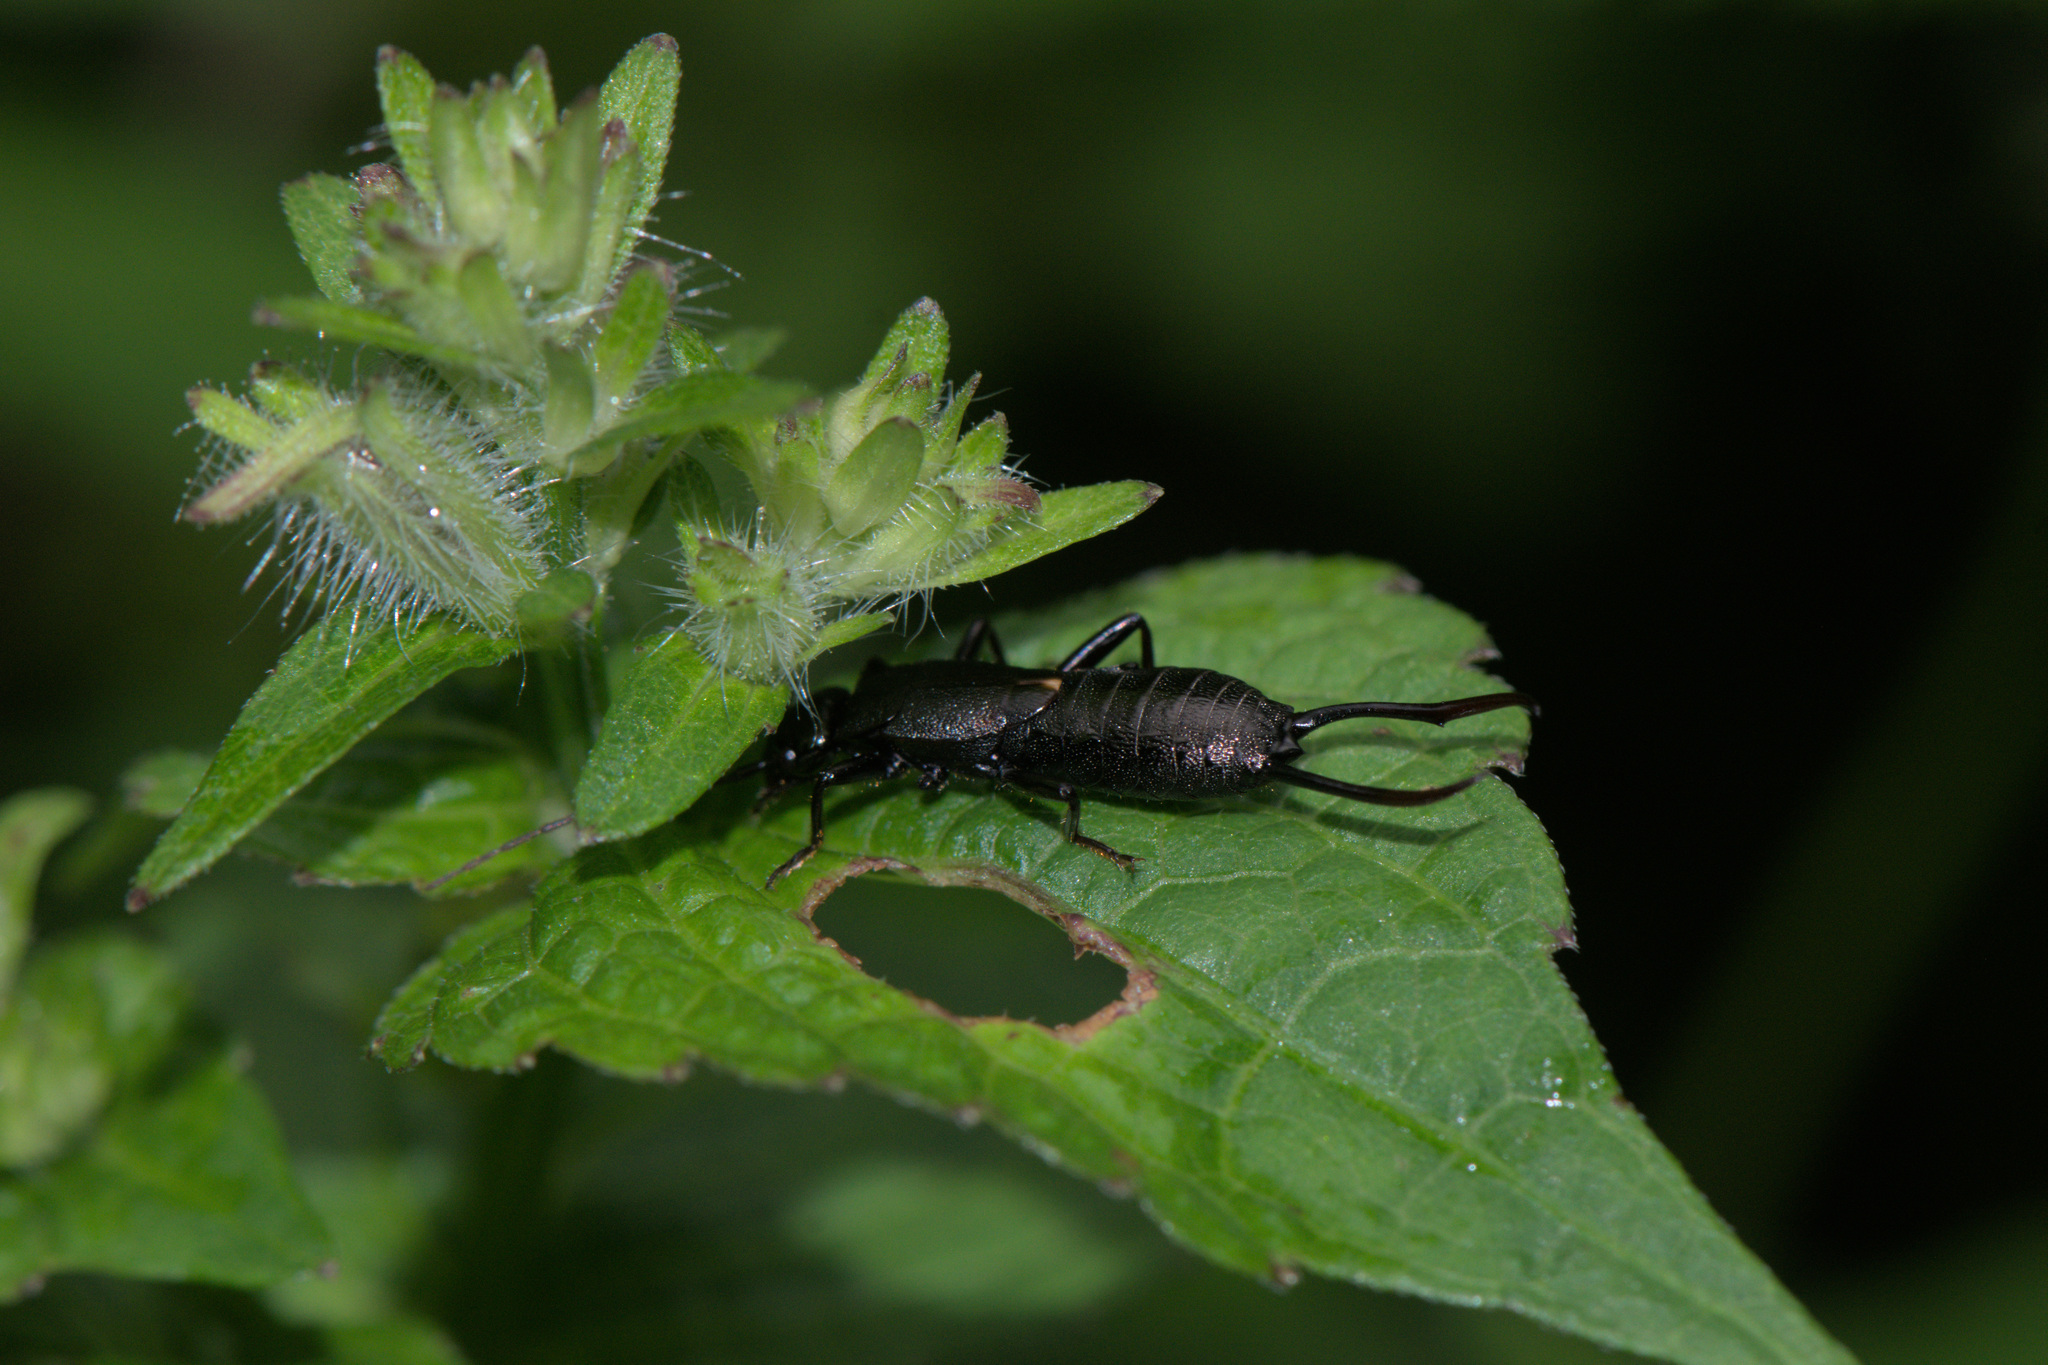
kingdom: Animalia
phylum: Arthropoda
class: Insecta
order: Dermaptera
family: Forficulidae
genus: Allodahlia
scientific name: Allodahlia macropyga
